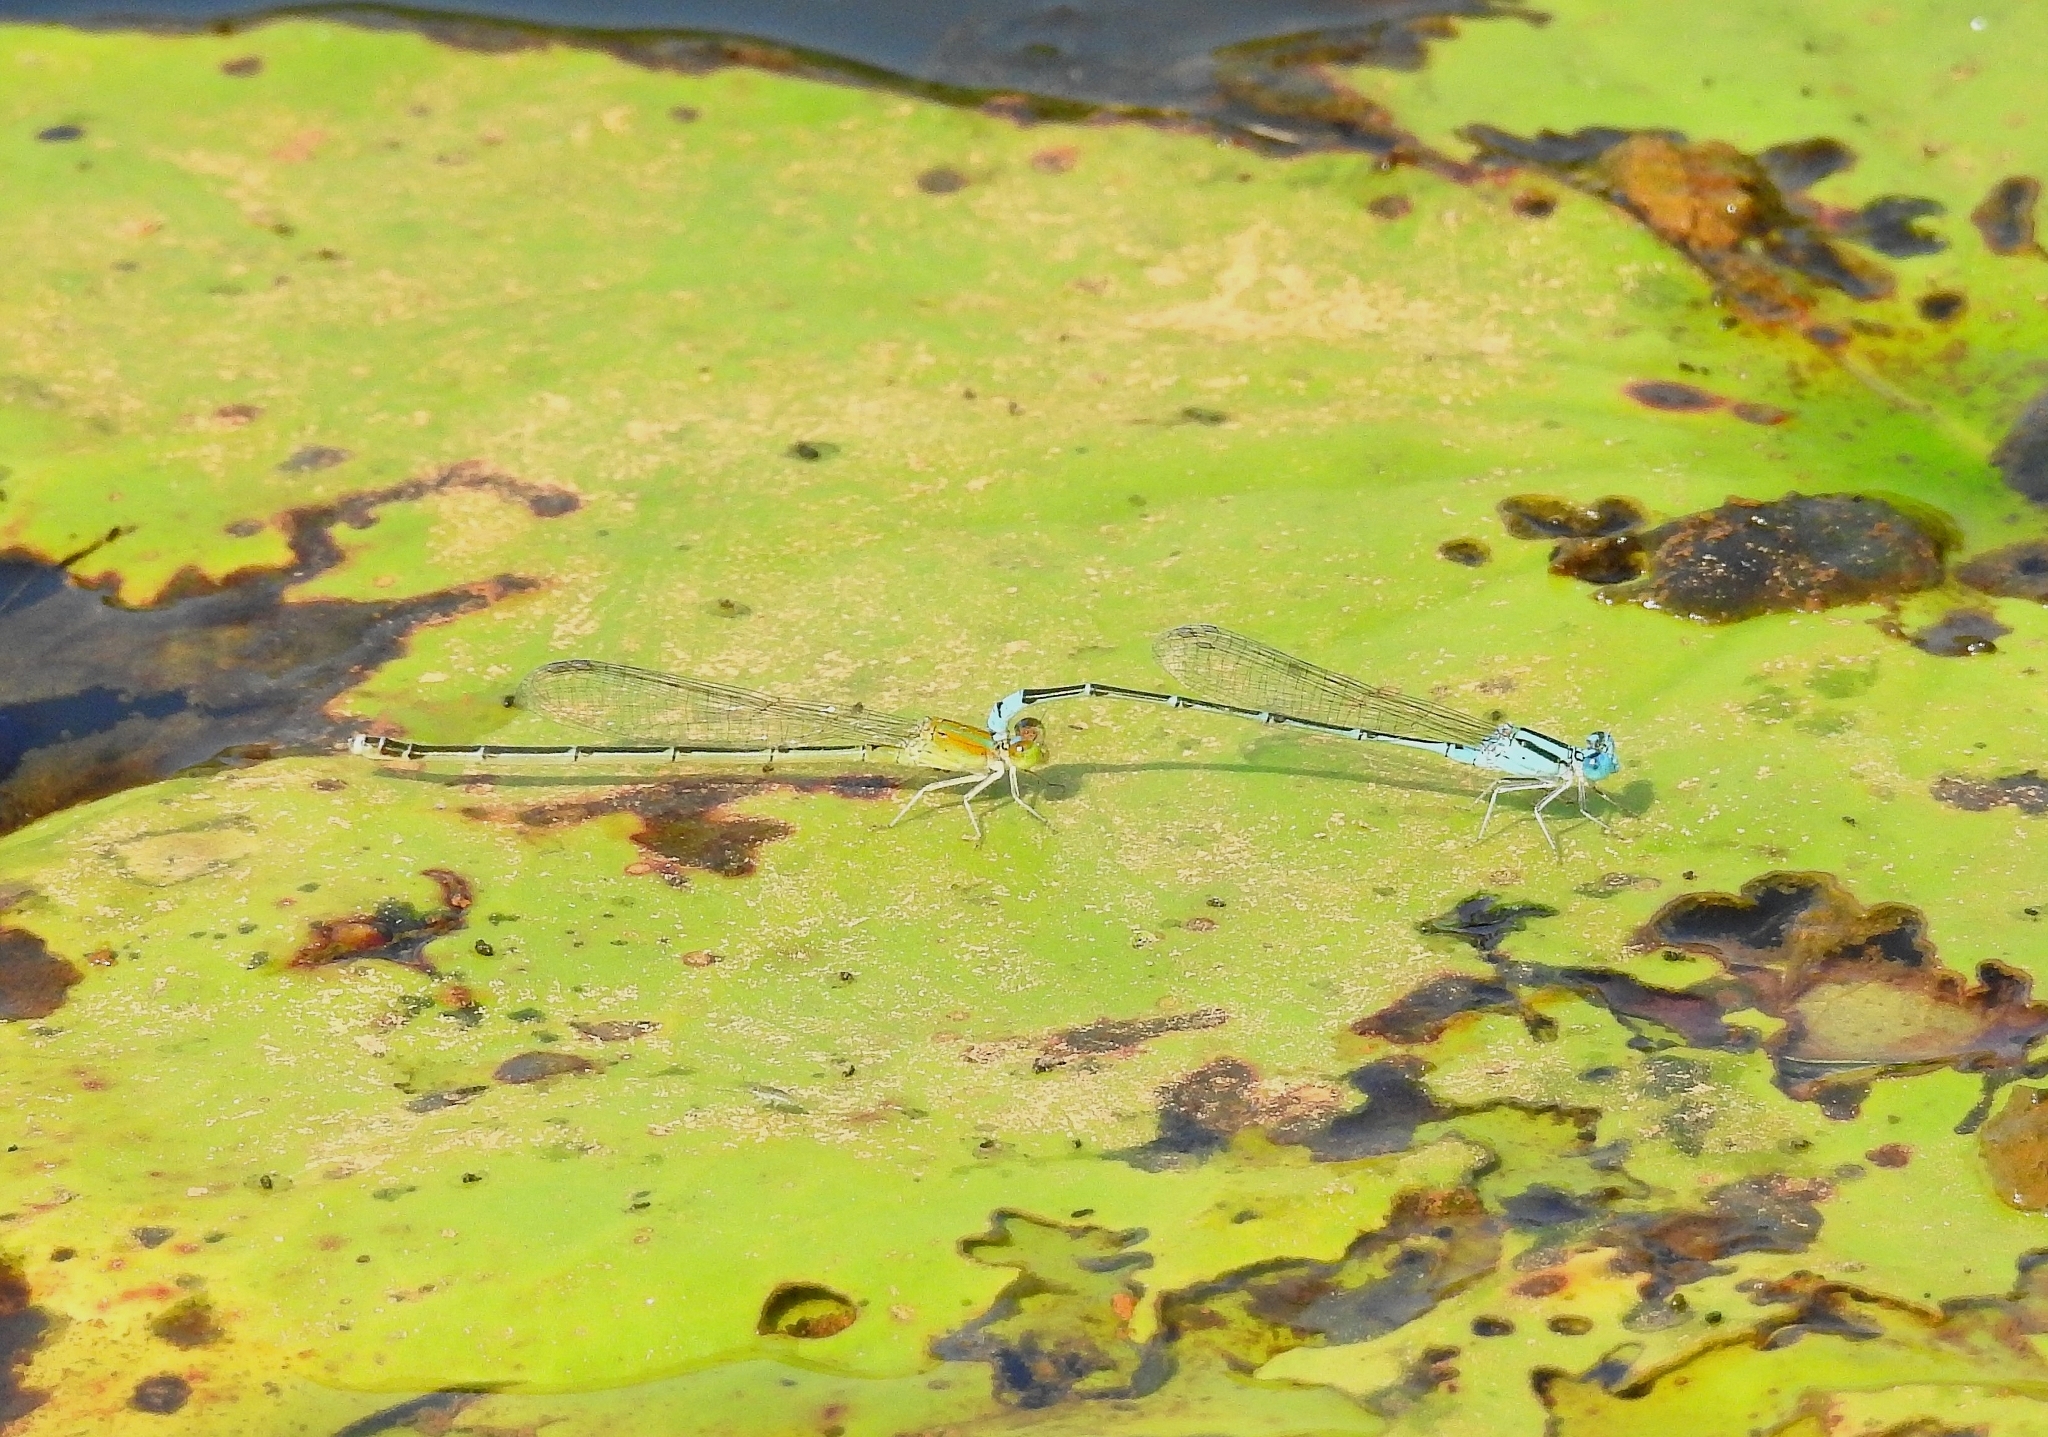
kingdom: Animalia
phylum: Arthropoda
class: Insecta
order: Odonata
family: Coenagrionidae
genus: Pseudagrion
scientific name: Pseudagrion microcephalum
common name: Blue riverdamsel
